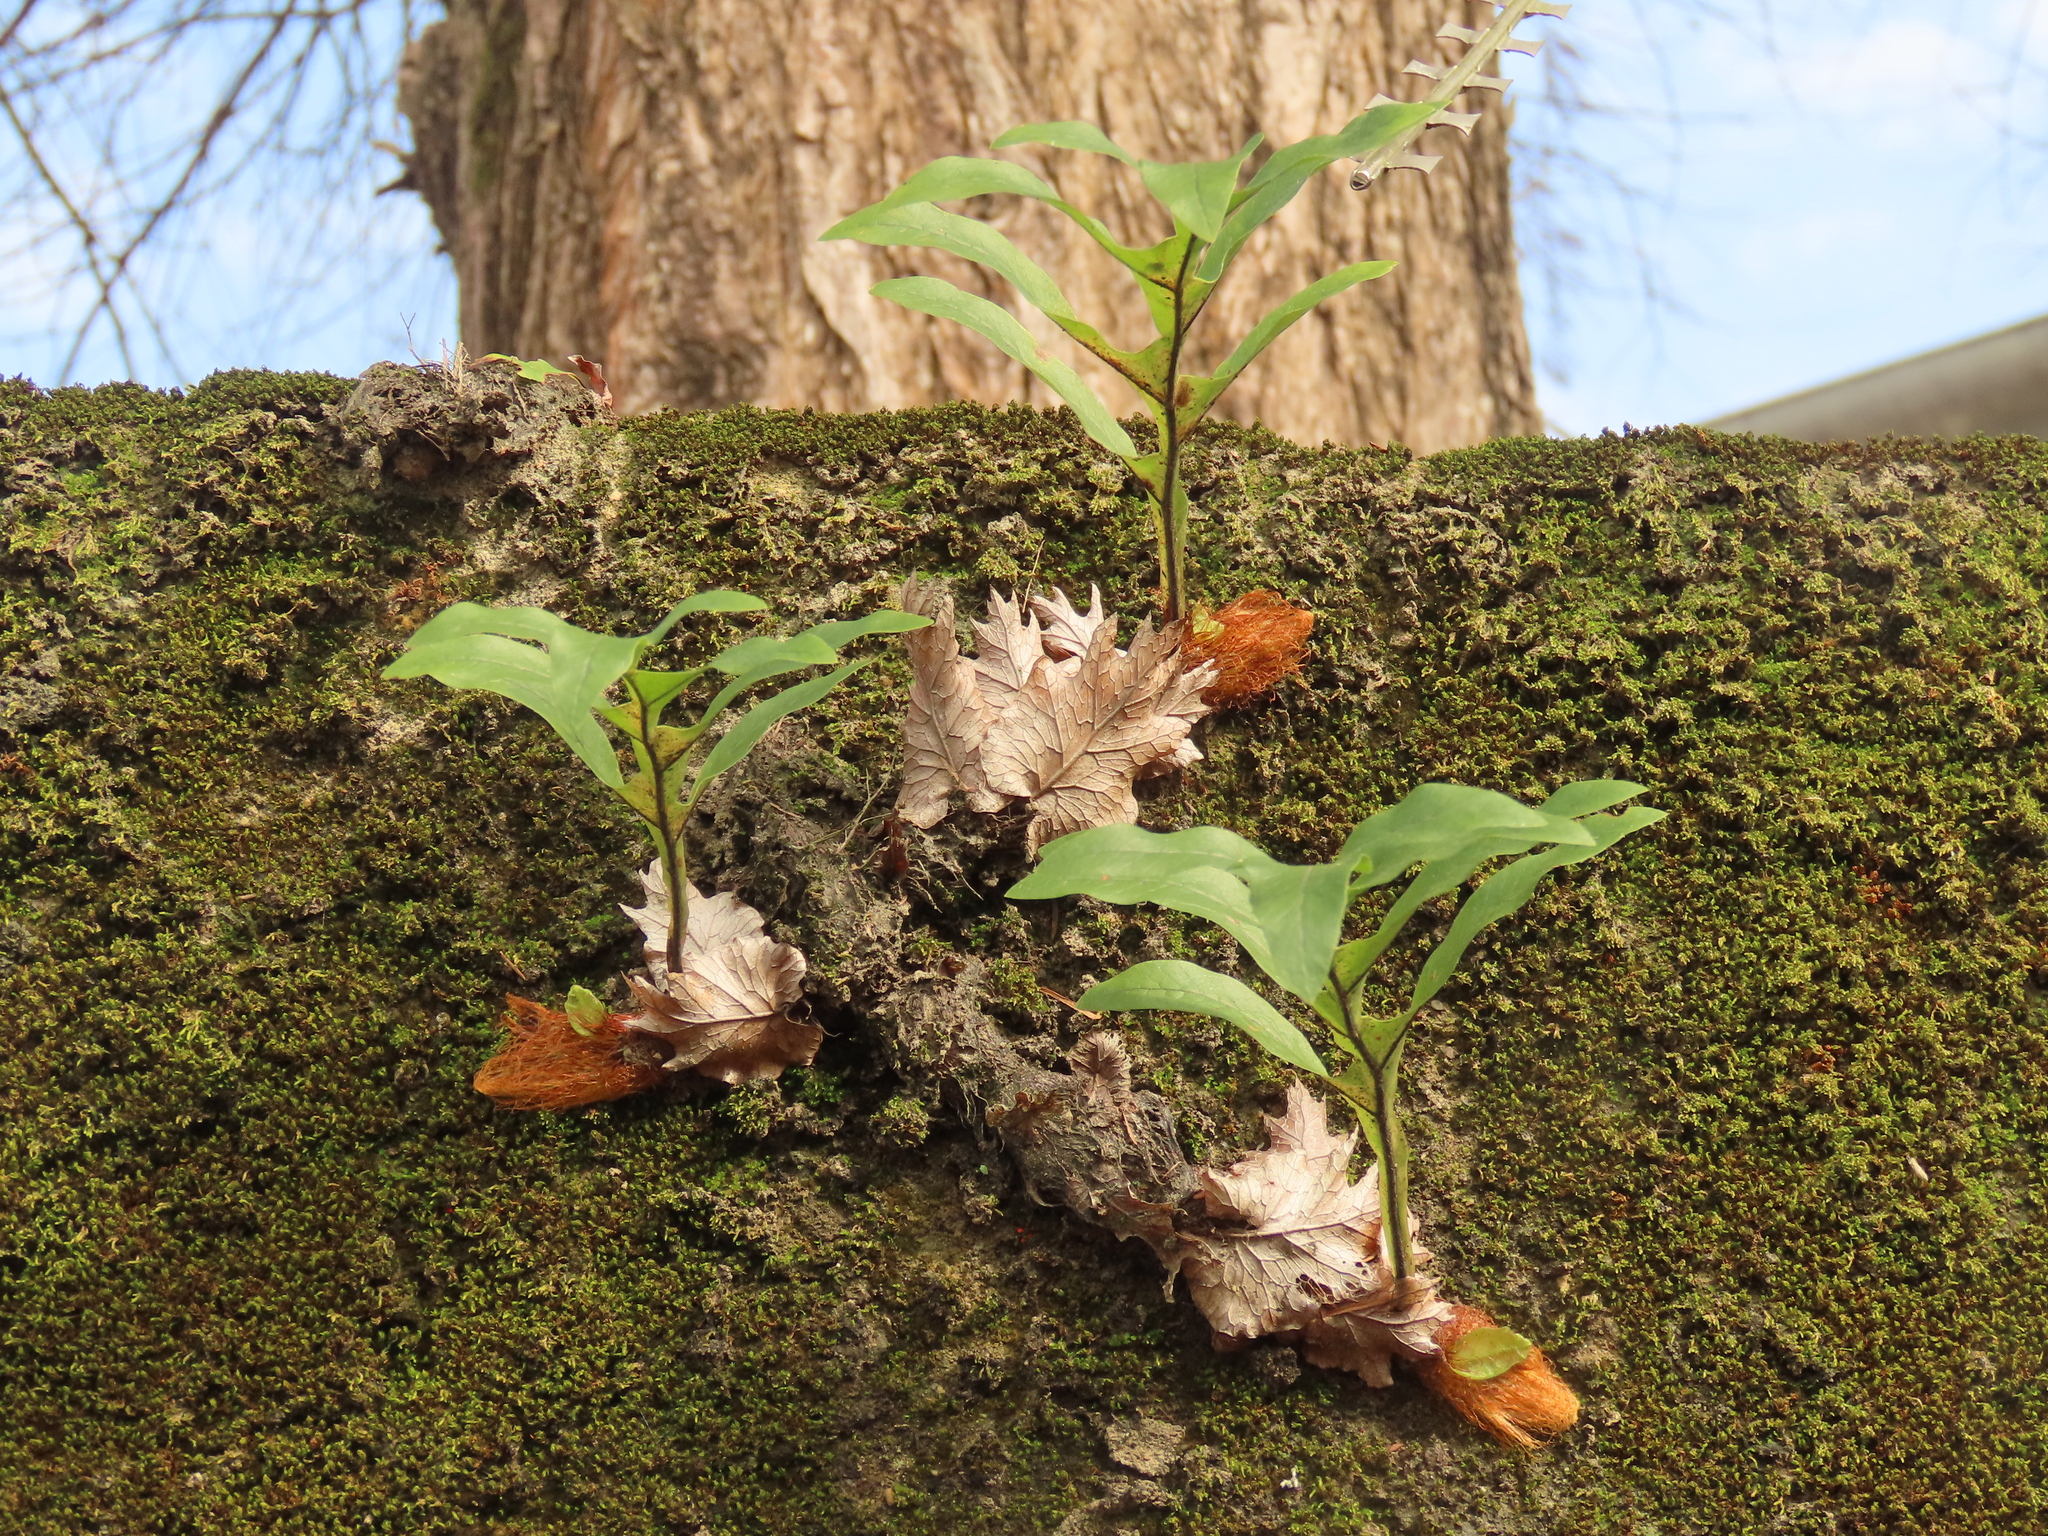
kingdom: Plantae
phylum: Tracheophyta
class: Polypodiopsida
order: Polypodiales
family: Polypodiaceae
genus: Drynaria
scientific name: Drynaria roosii
